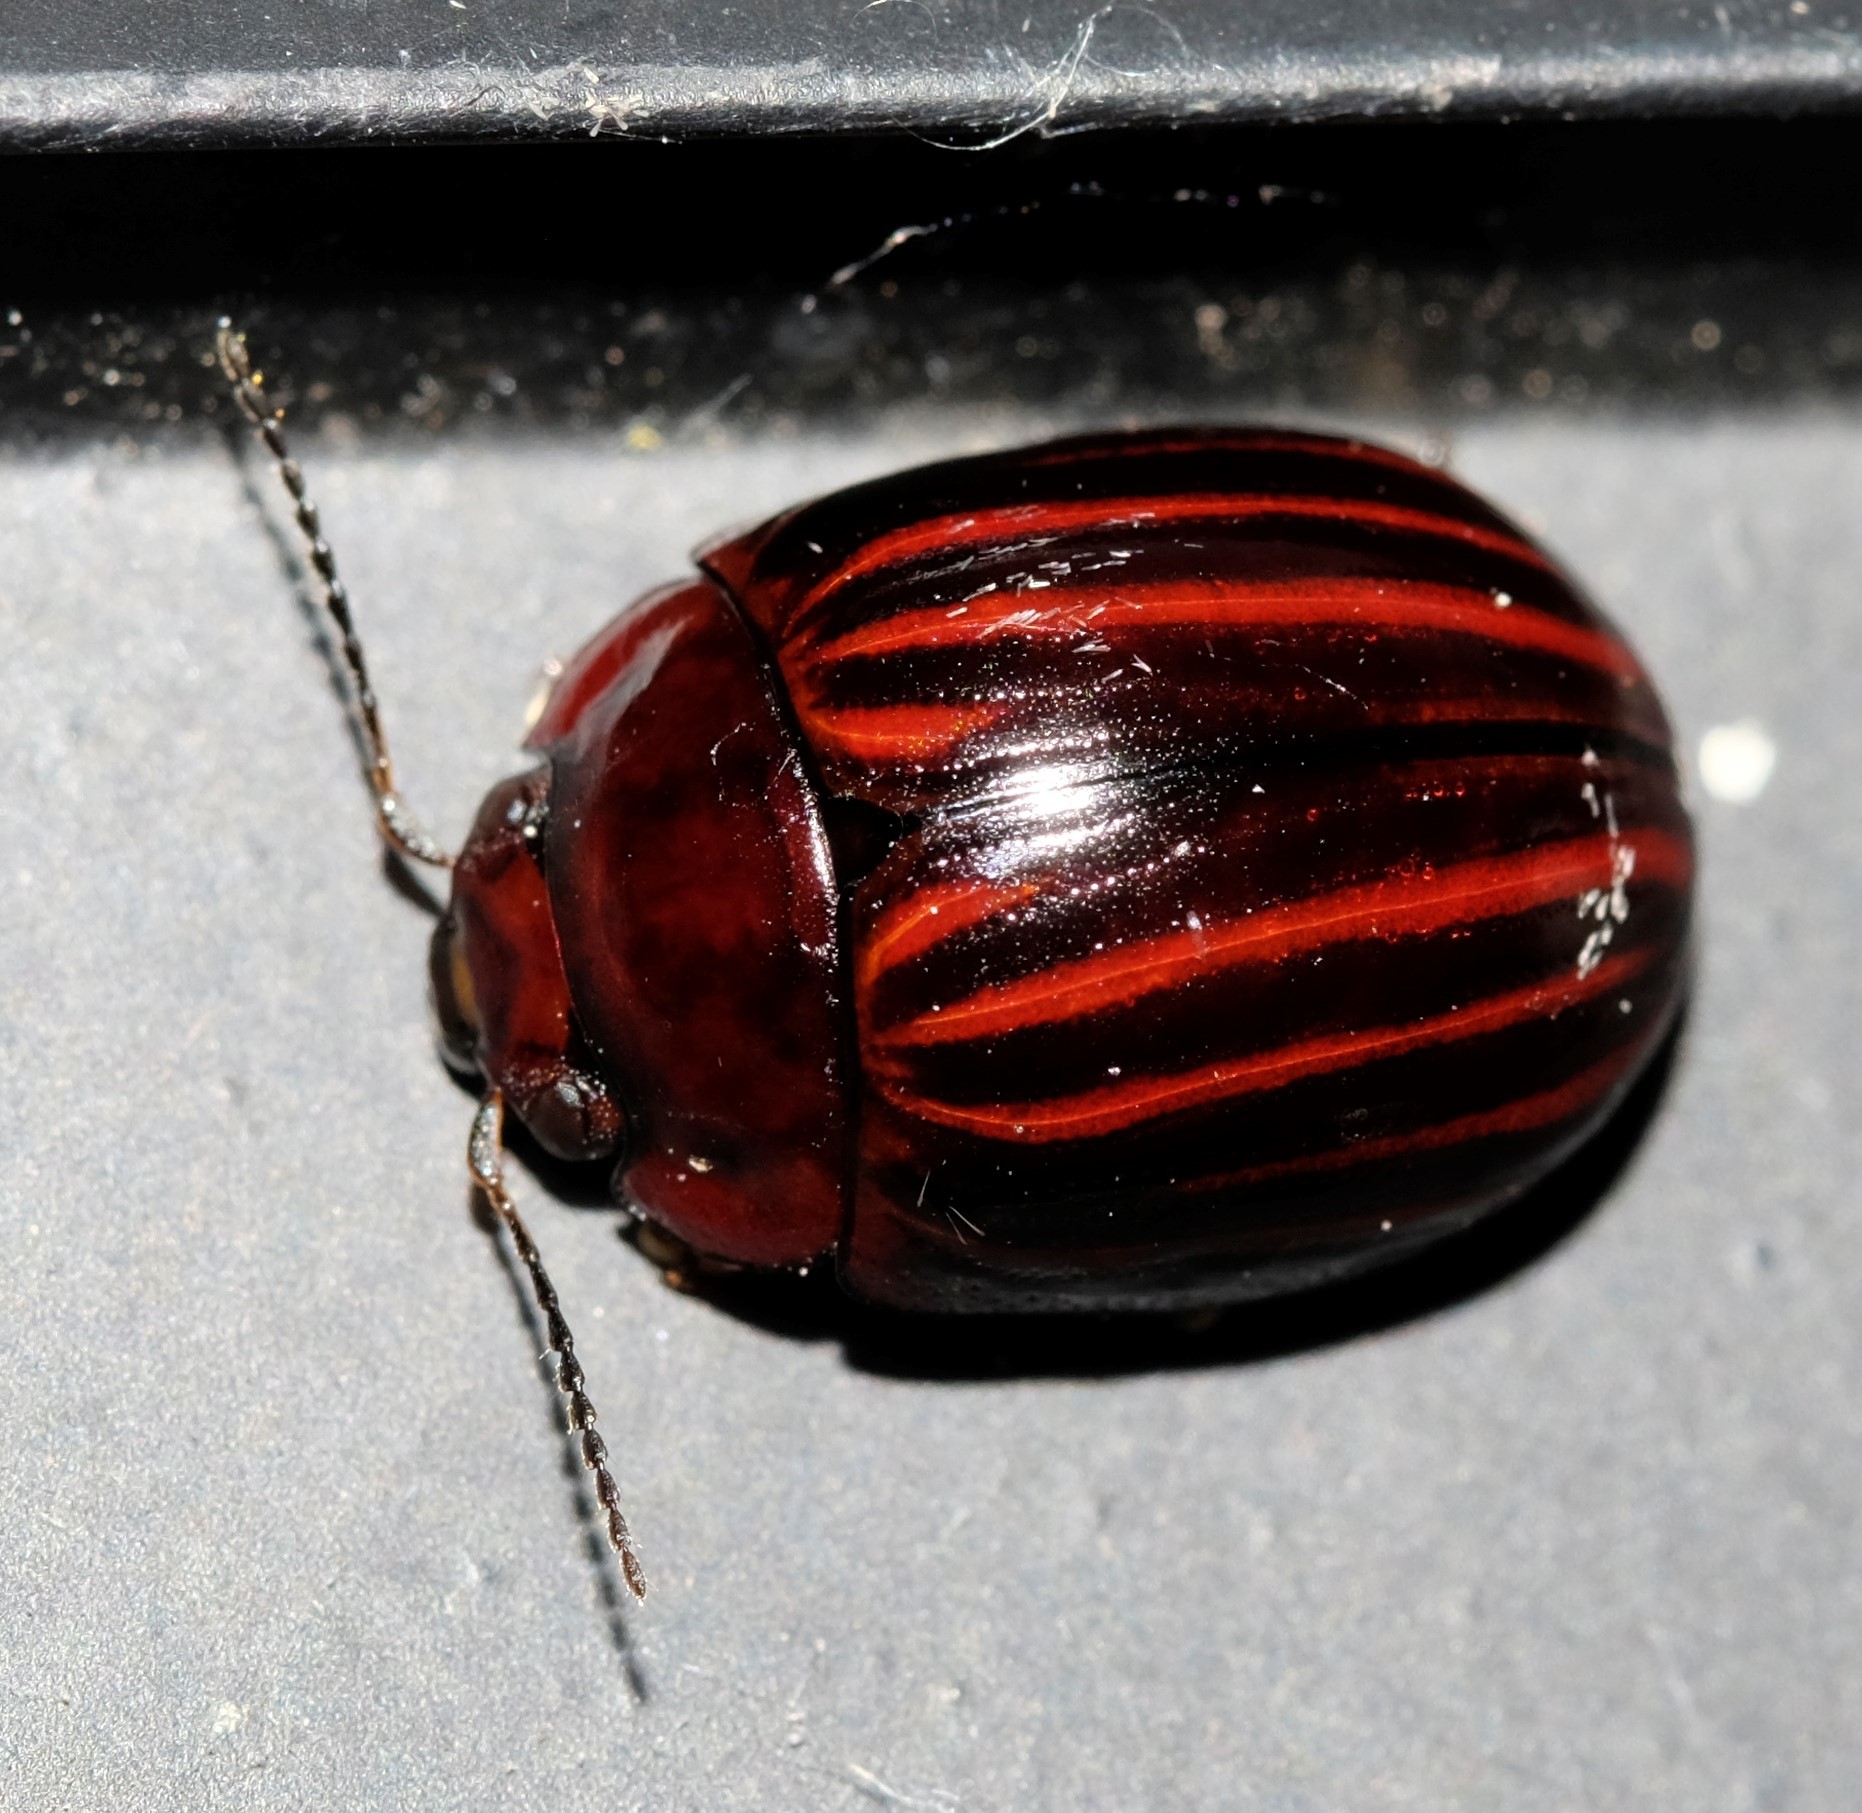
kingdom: Animalia
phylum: Arthropoda
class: Insecta
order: Coleoptera
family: Chrysomelidae
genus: Paropsisterna
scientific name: Paropsisterna
